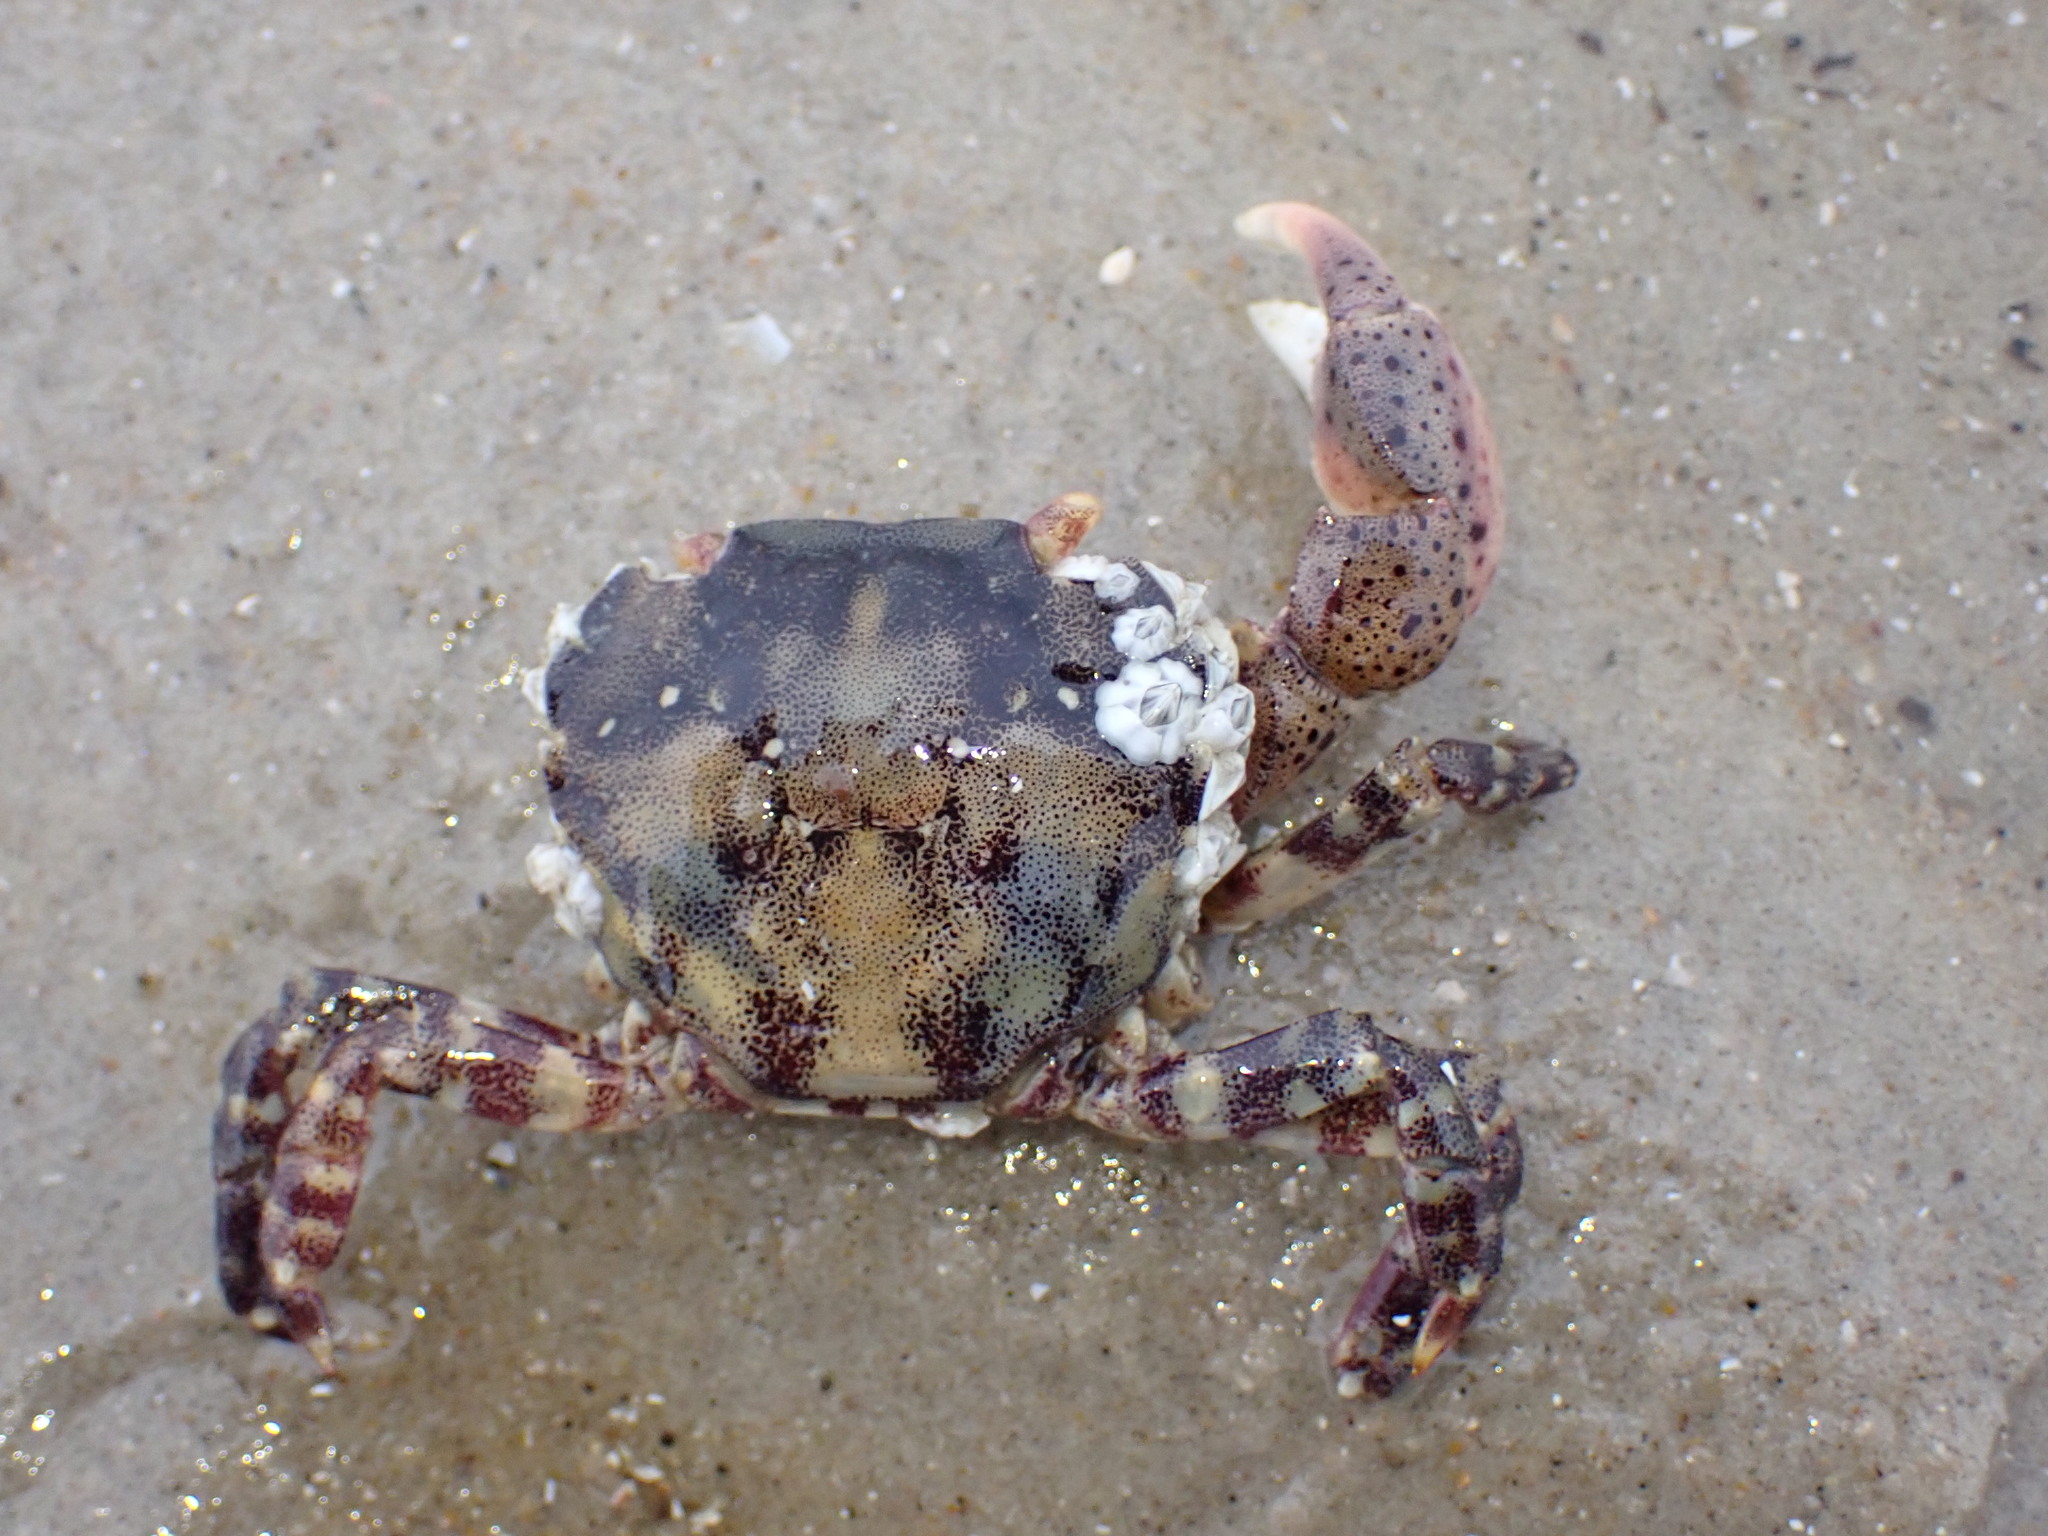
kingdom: Animalia
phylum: Arthropoda
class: Malacostraca
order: Decapoda
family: Varunidae
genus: Hemigrapsus
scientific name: Hemigrapsus sanguineus
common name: Asian shore crab
